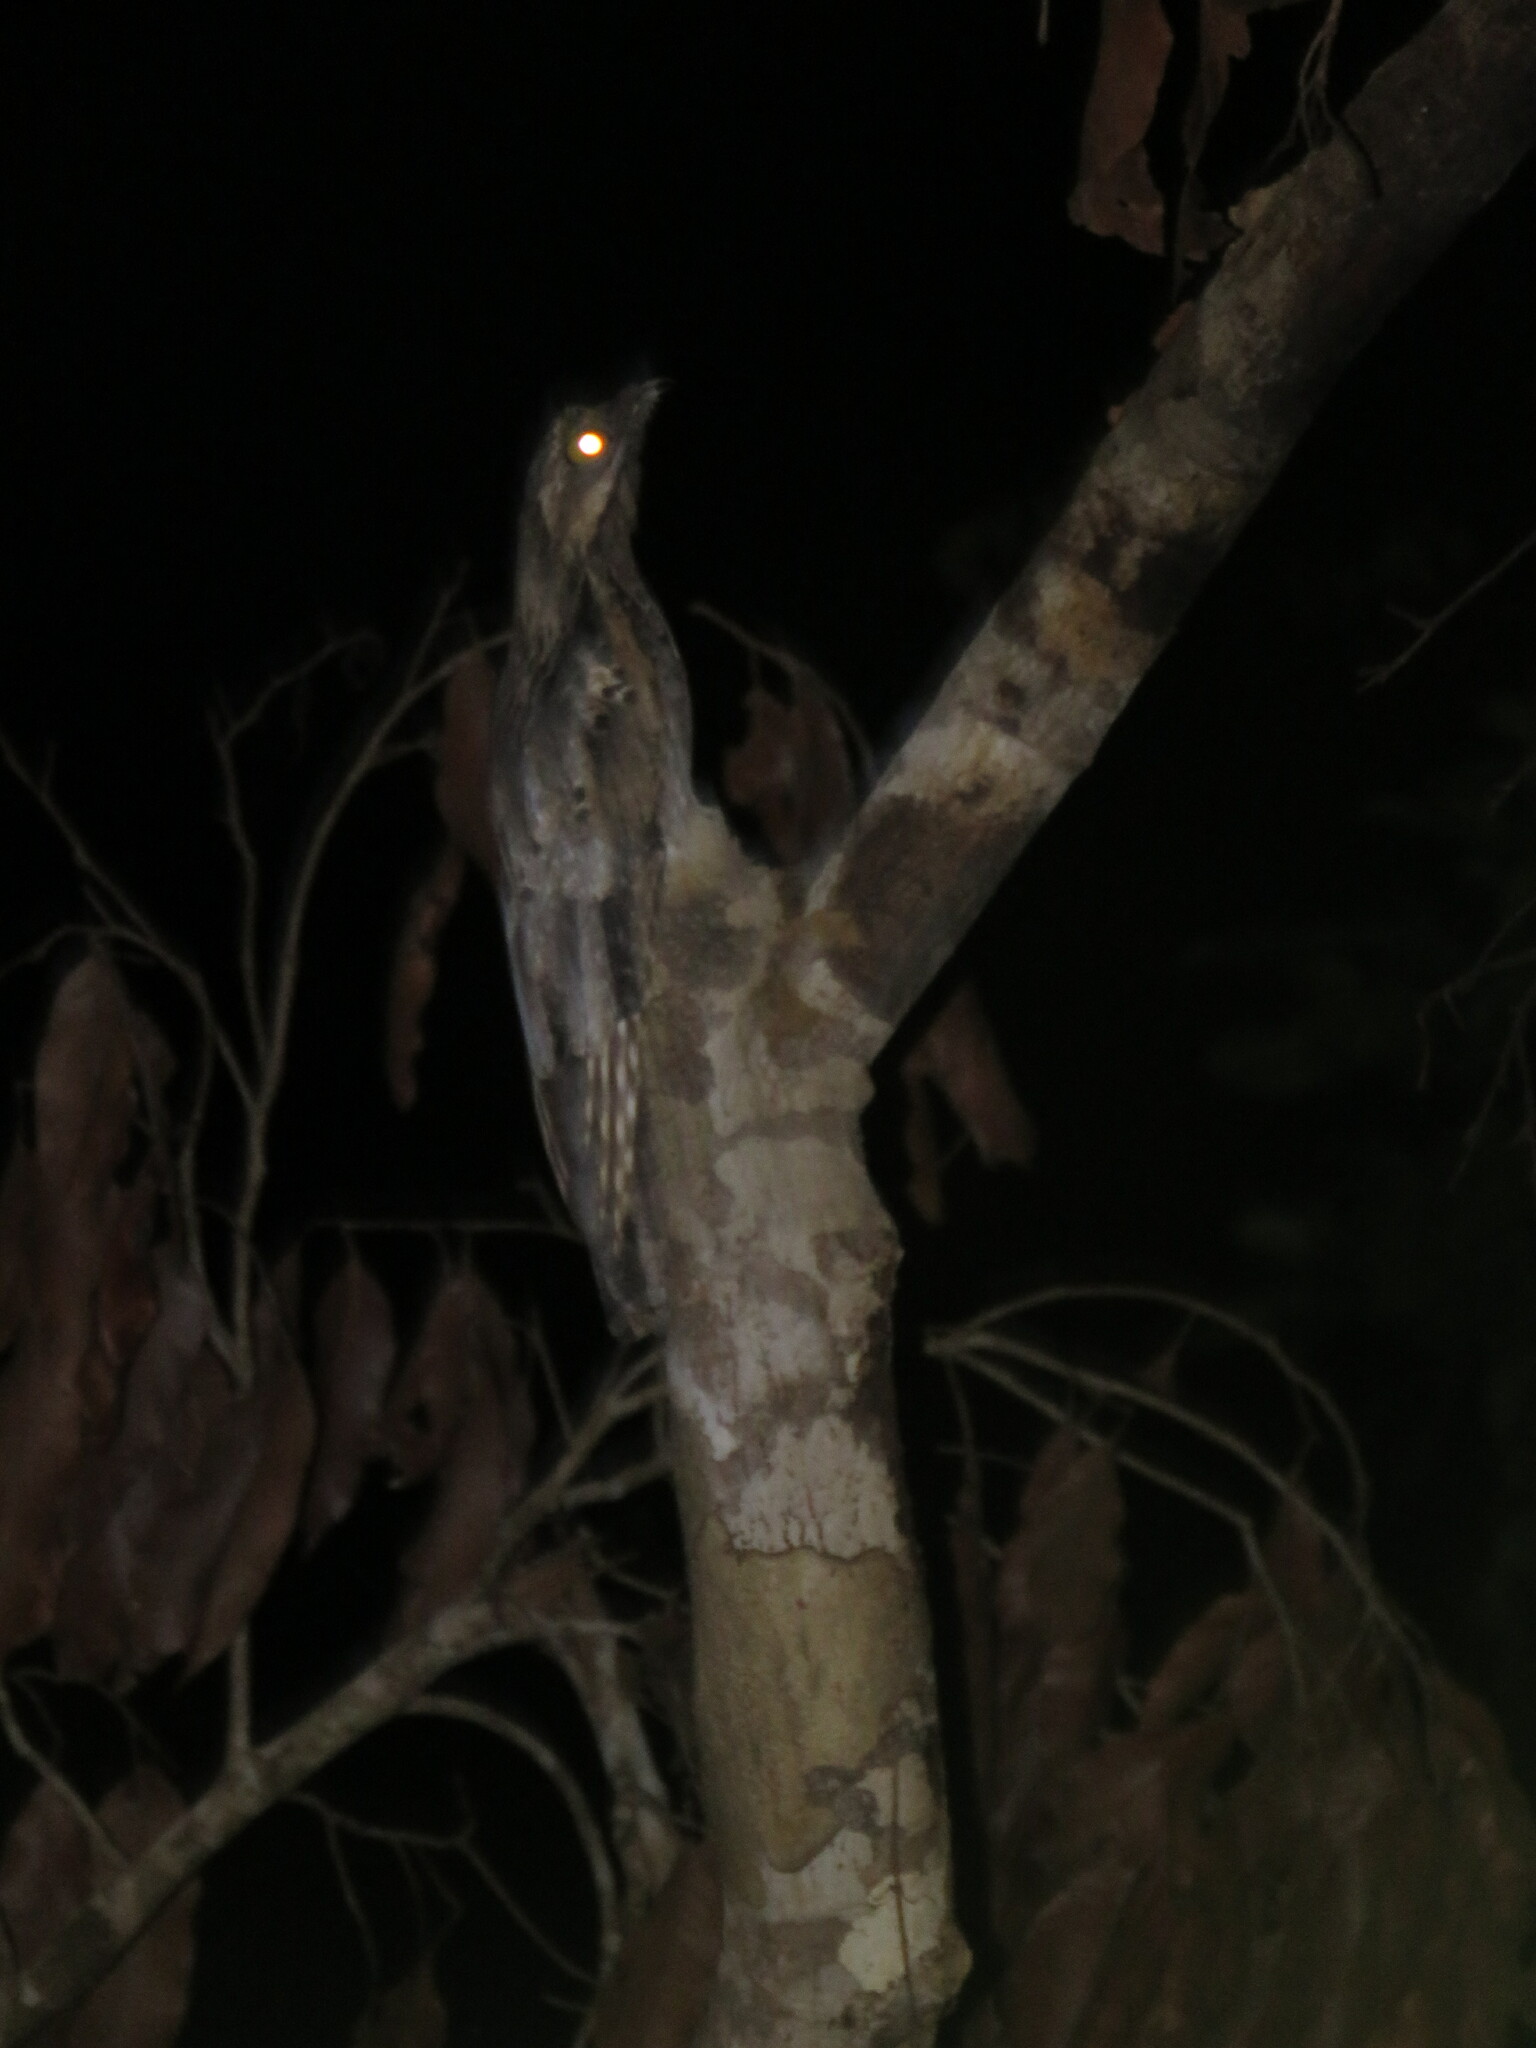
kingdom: Animalia
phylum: Chordata
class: Aves
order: Nyctibiiformes
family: Nyctibiidae
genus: Nyctibius
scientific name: Nyctibius griseus
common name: Common potoo
